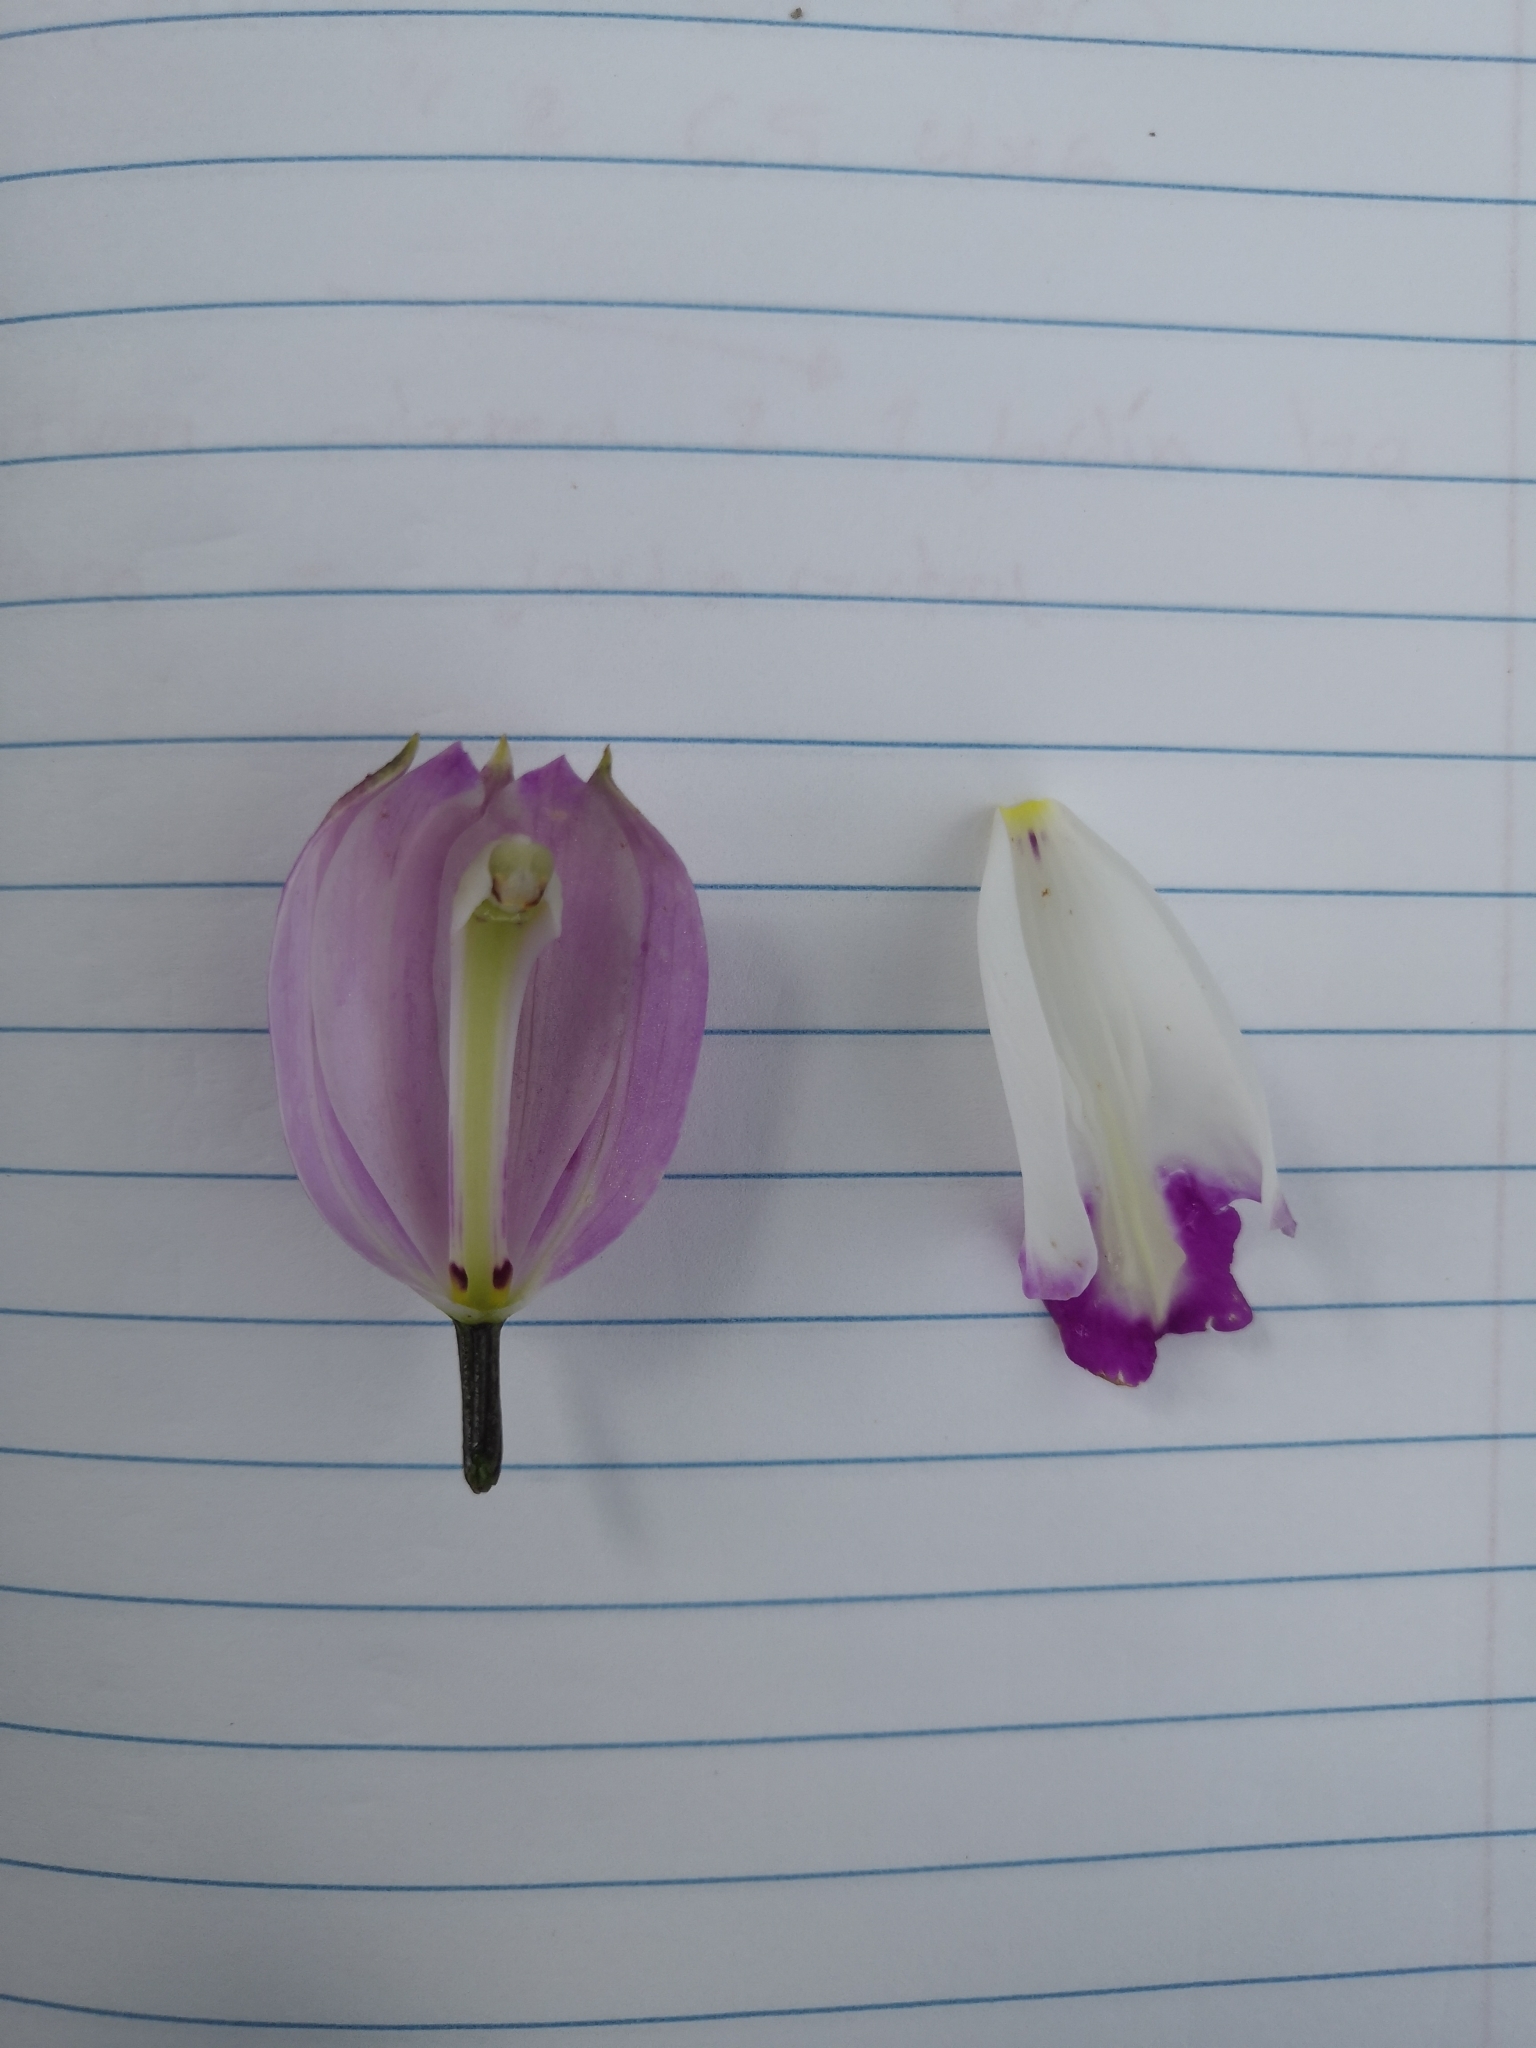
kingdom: Plantae
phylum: Tracheophyta
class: Liliopsida
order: Asparagales
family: Orchidaceae
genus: Bletia
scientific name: Bletia campanulata
